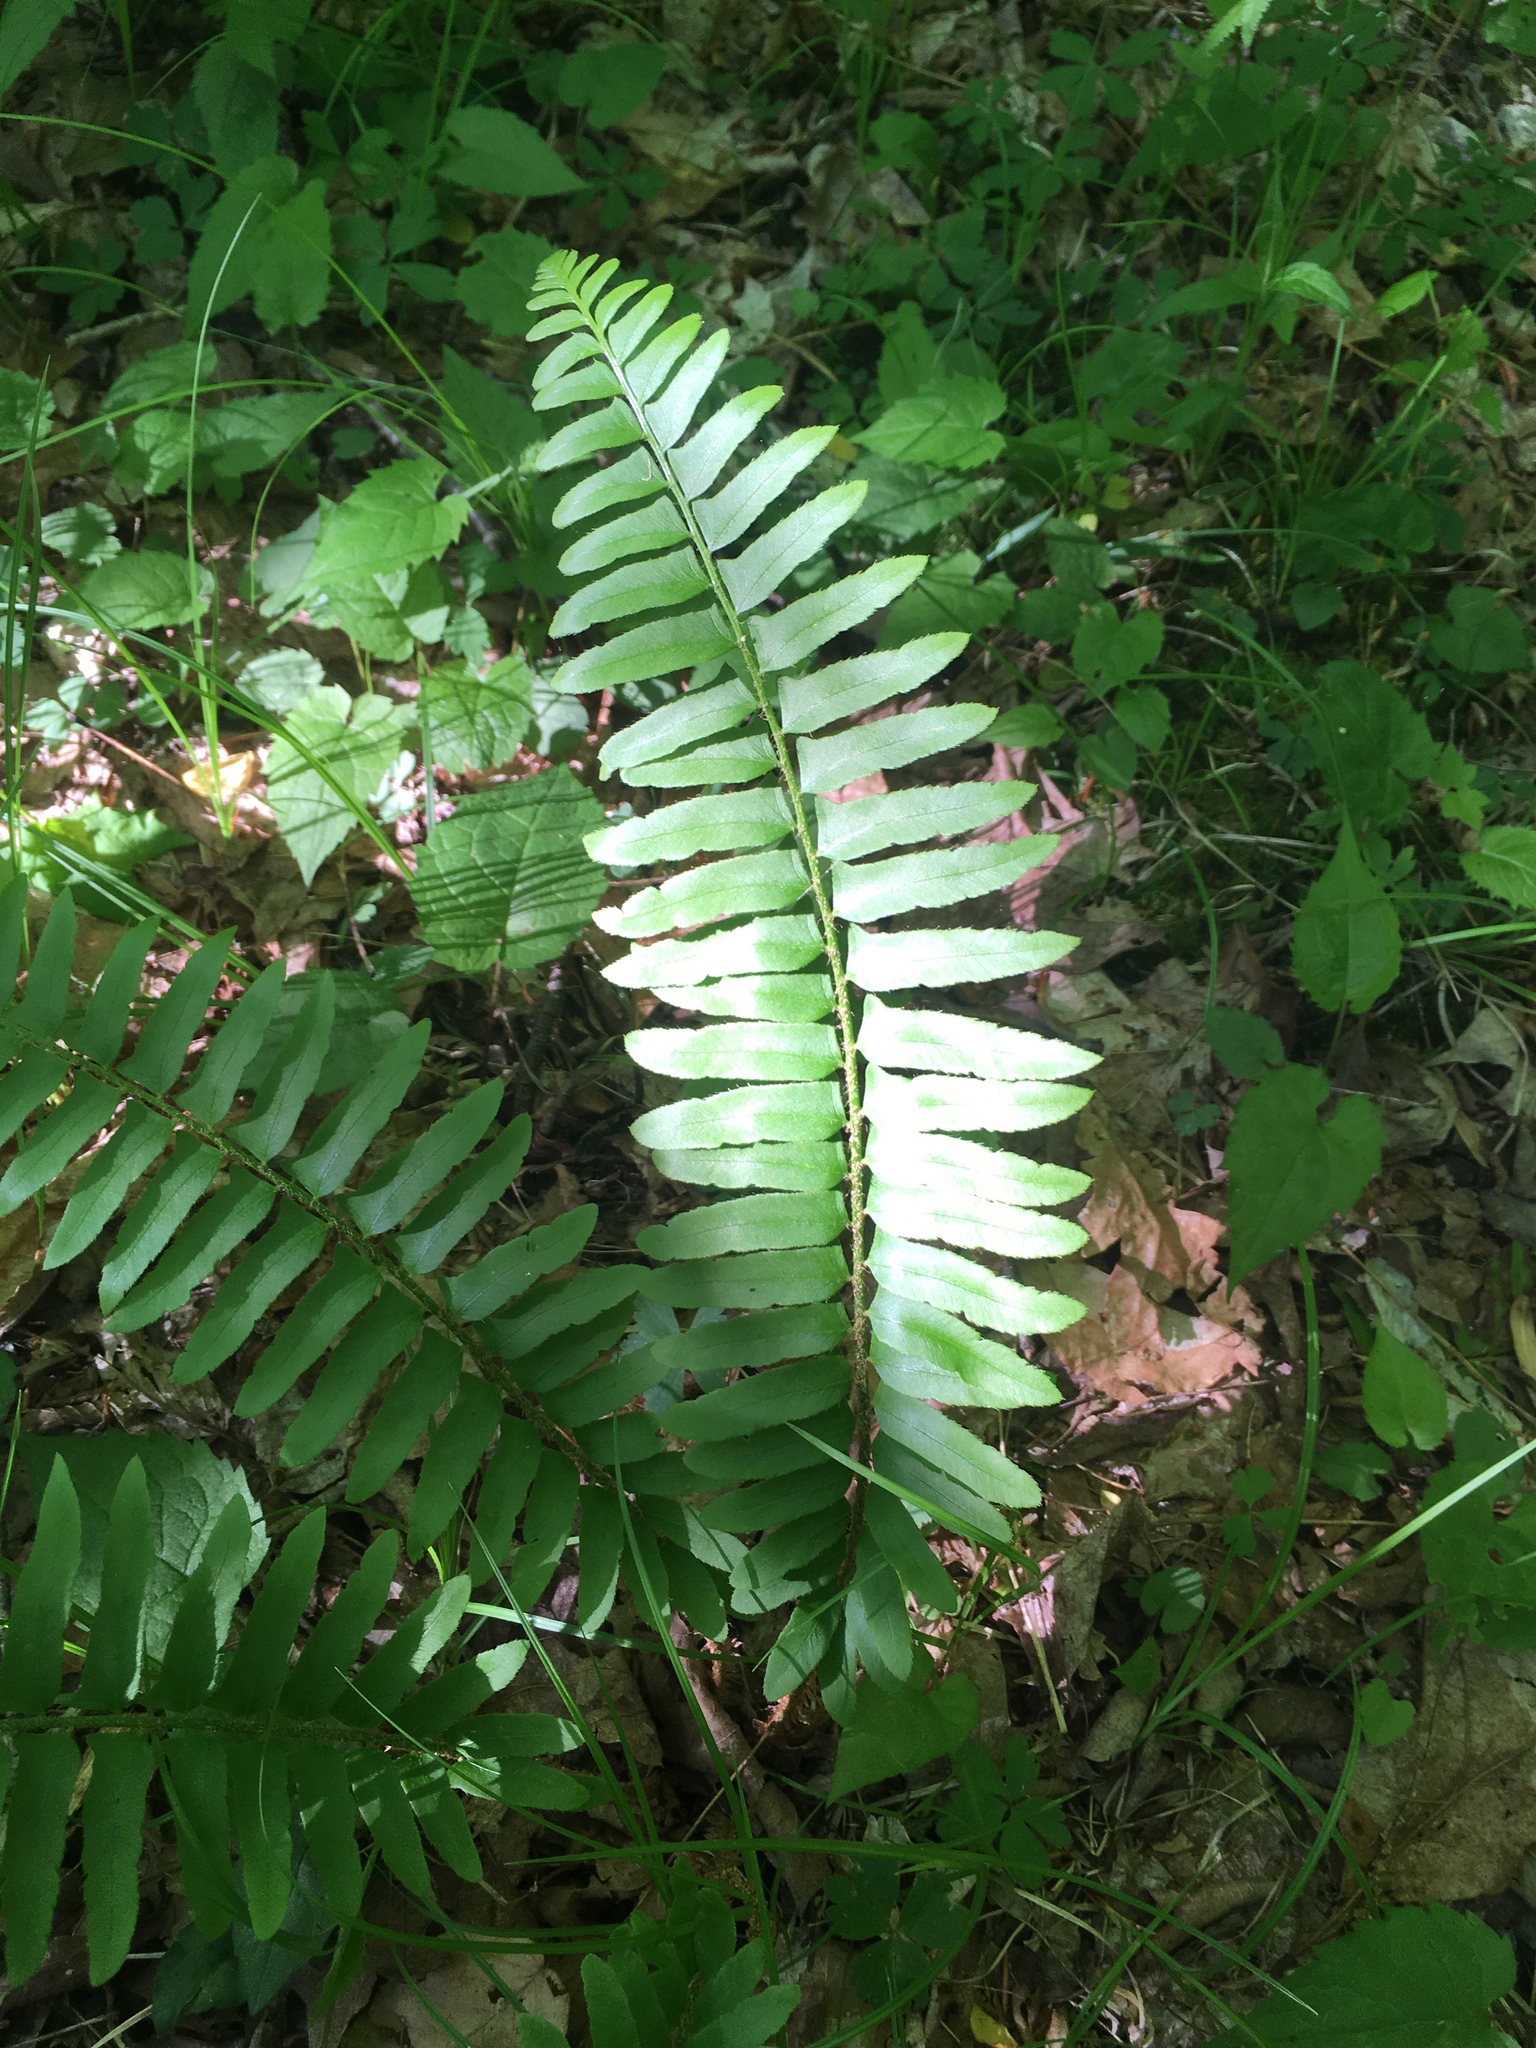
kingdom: Plantae
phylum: Tracheophyta
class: Polypodiopsida
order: Polypodiales
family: Dryopteridaceae
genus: Polystichum
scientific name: Polystichum acrostichoides
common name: Christmas fern
